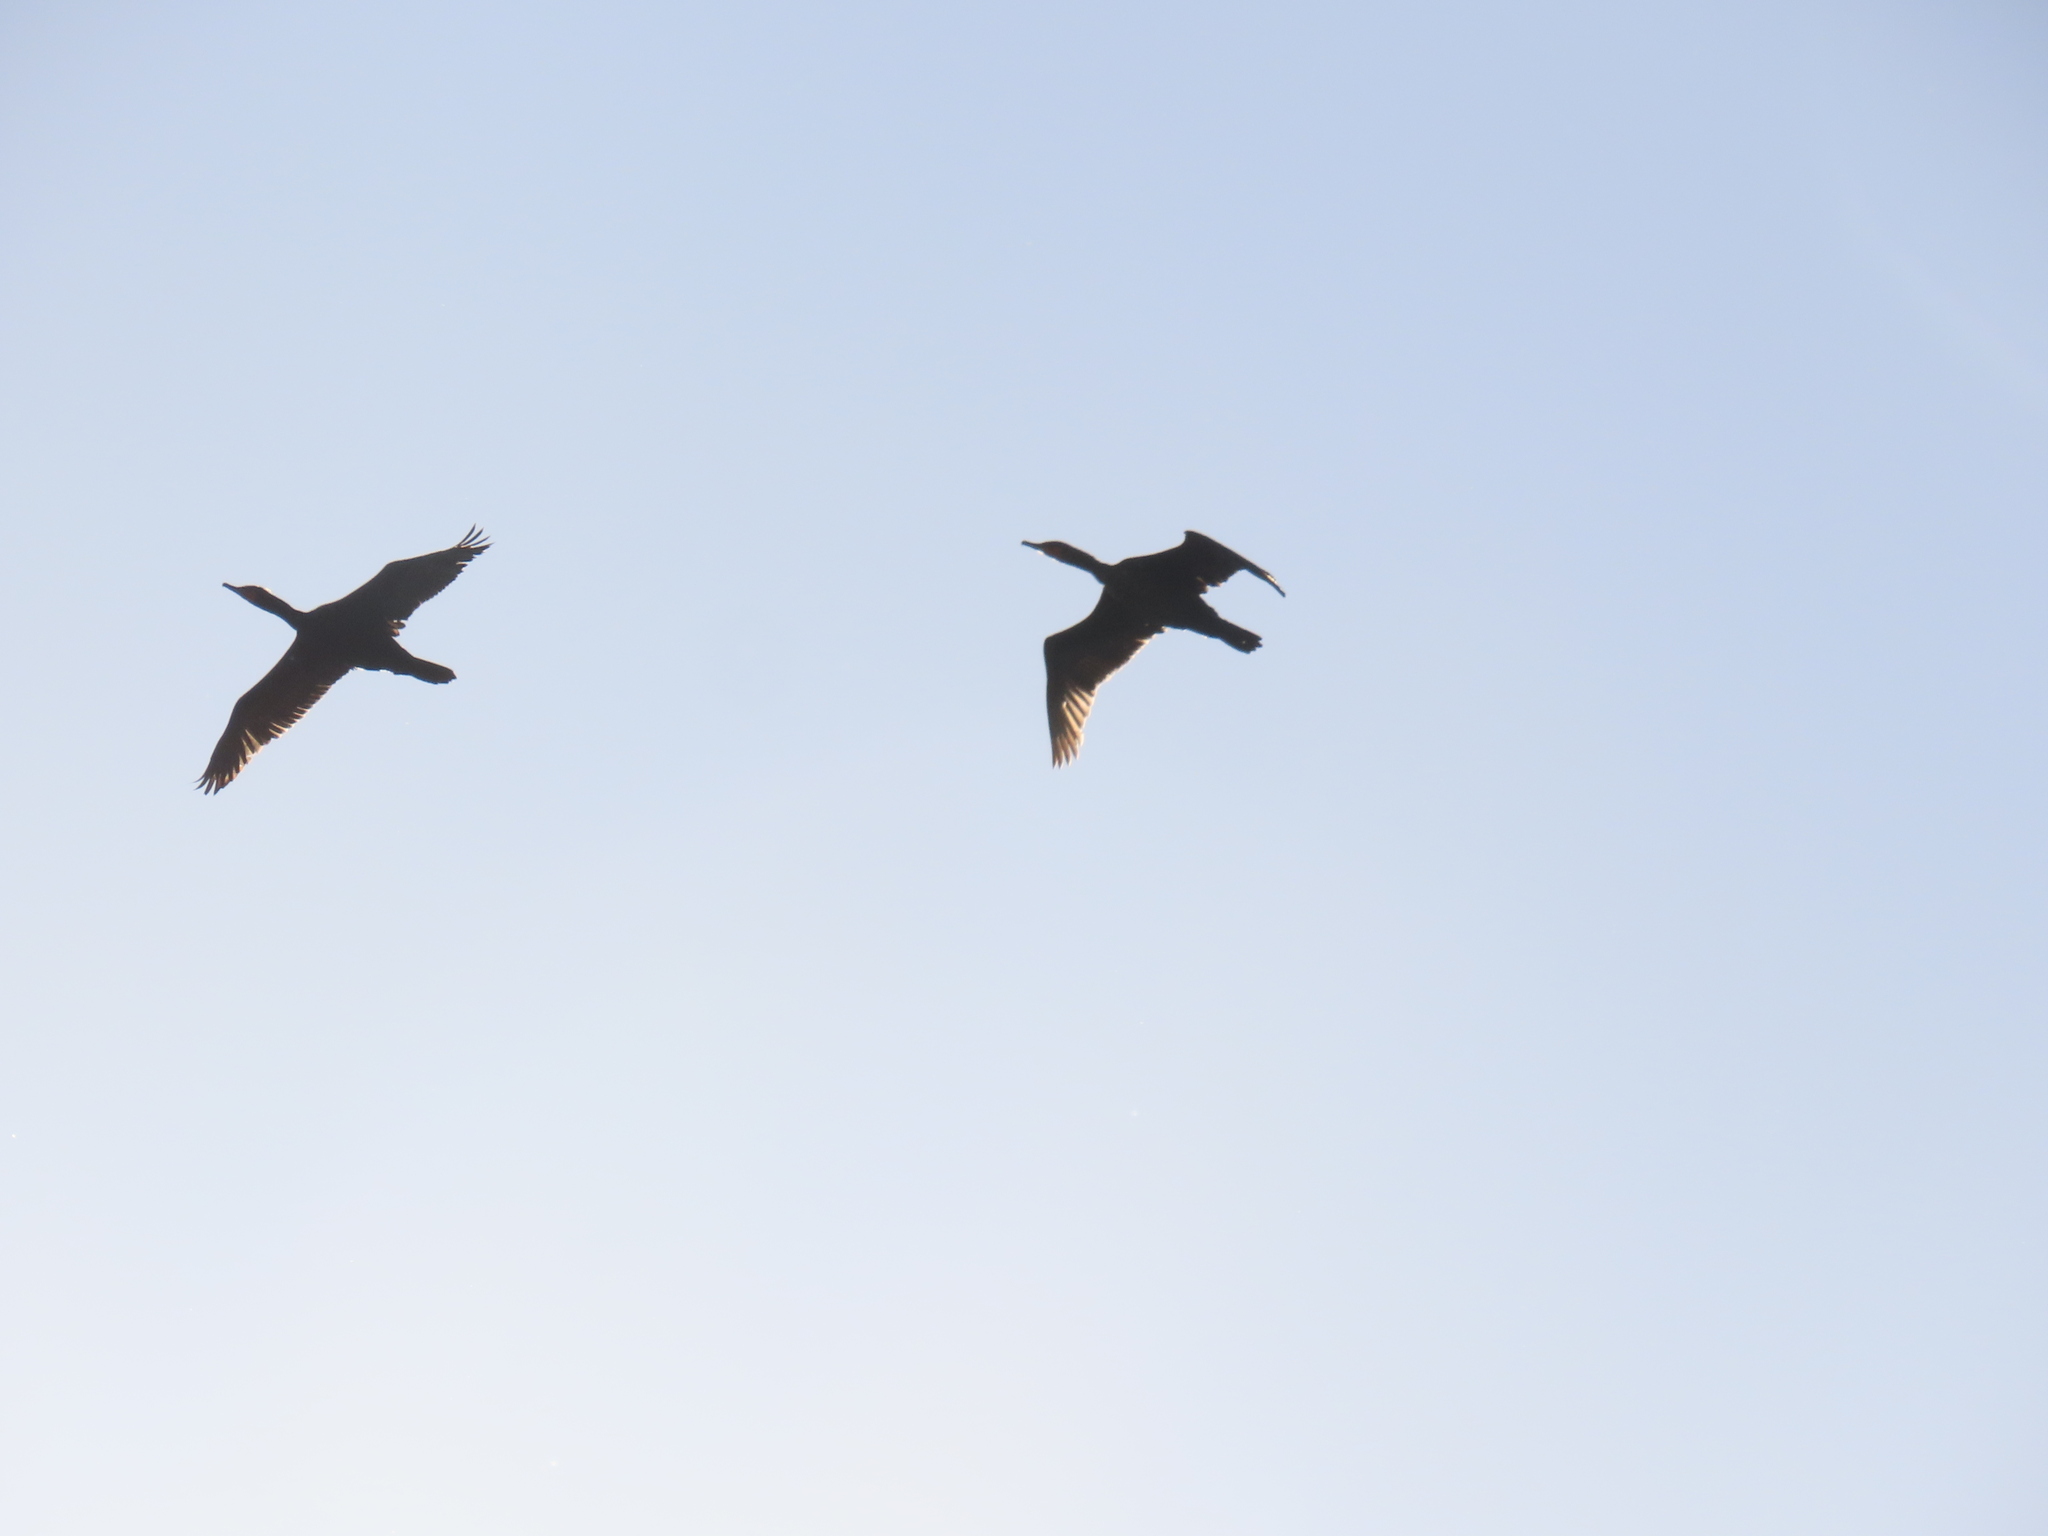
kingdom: Animalia
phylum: Chordata
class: Aves
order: Suliformes
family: Phalacrocoracidae
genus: Phalacrocorax
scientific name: Phalacrocorax auritus
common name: Double-crested cormorant
